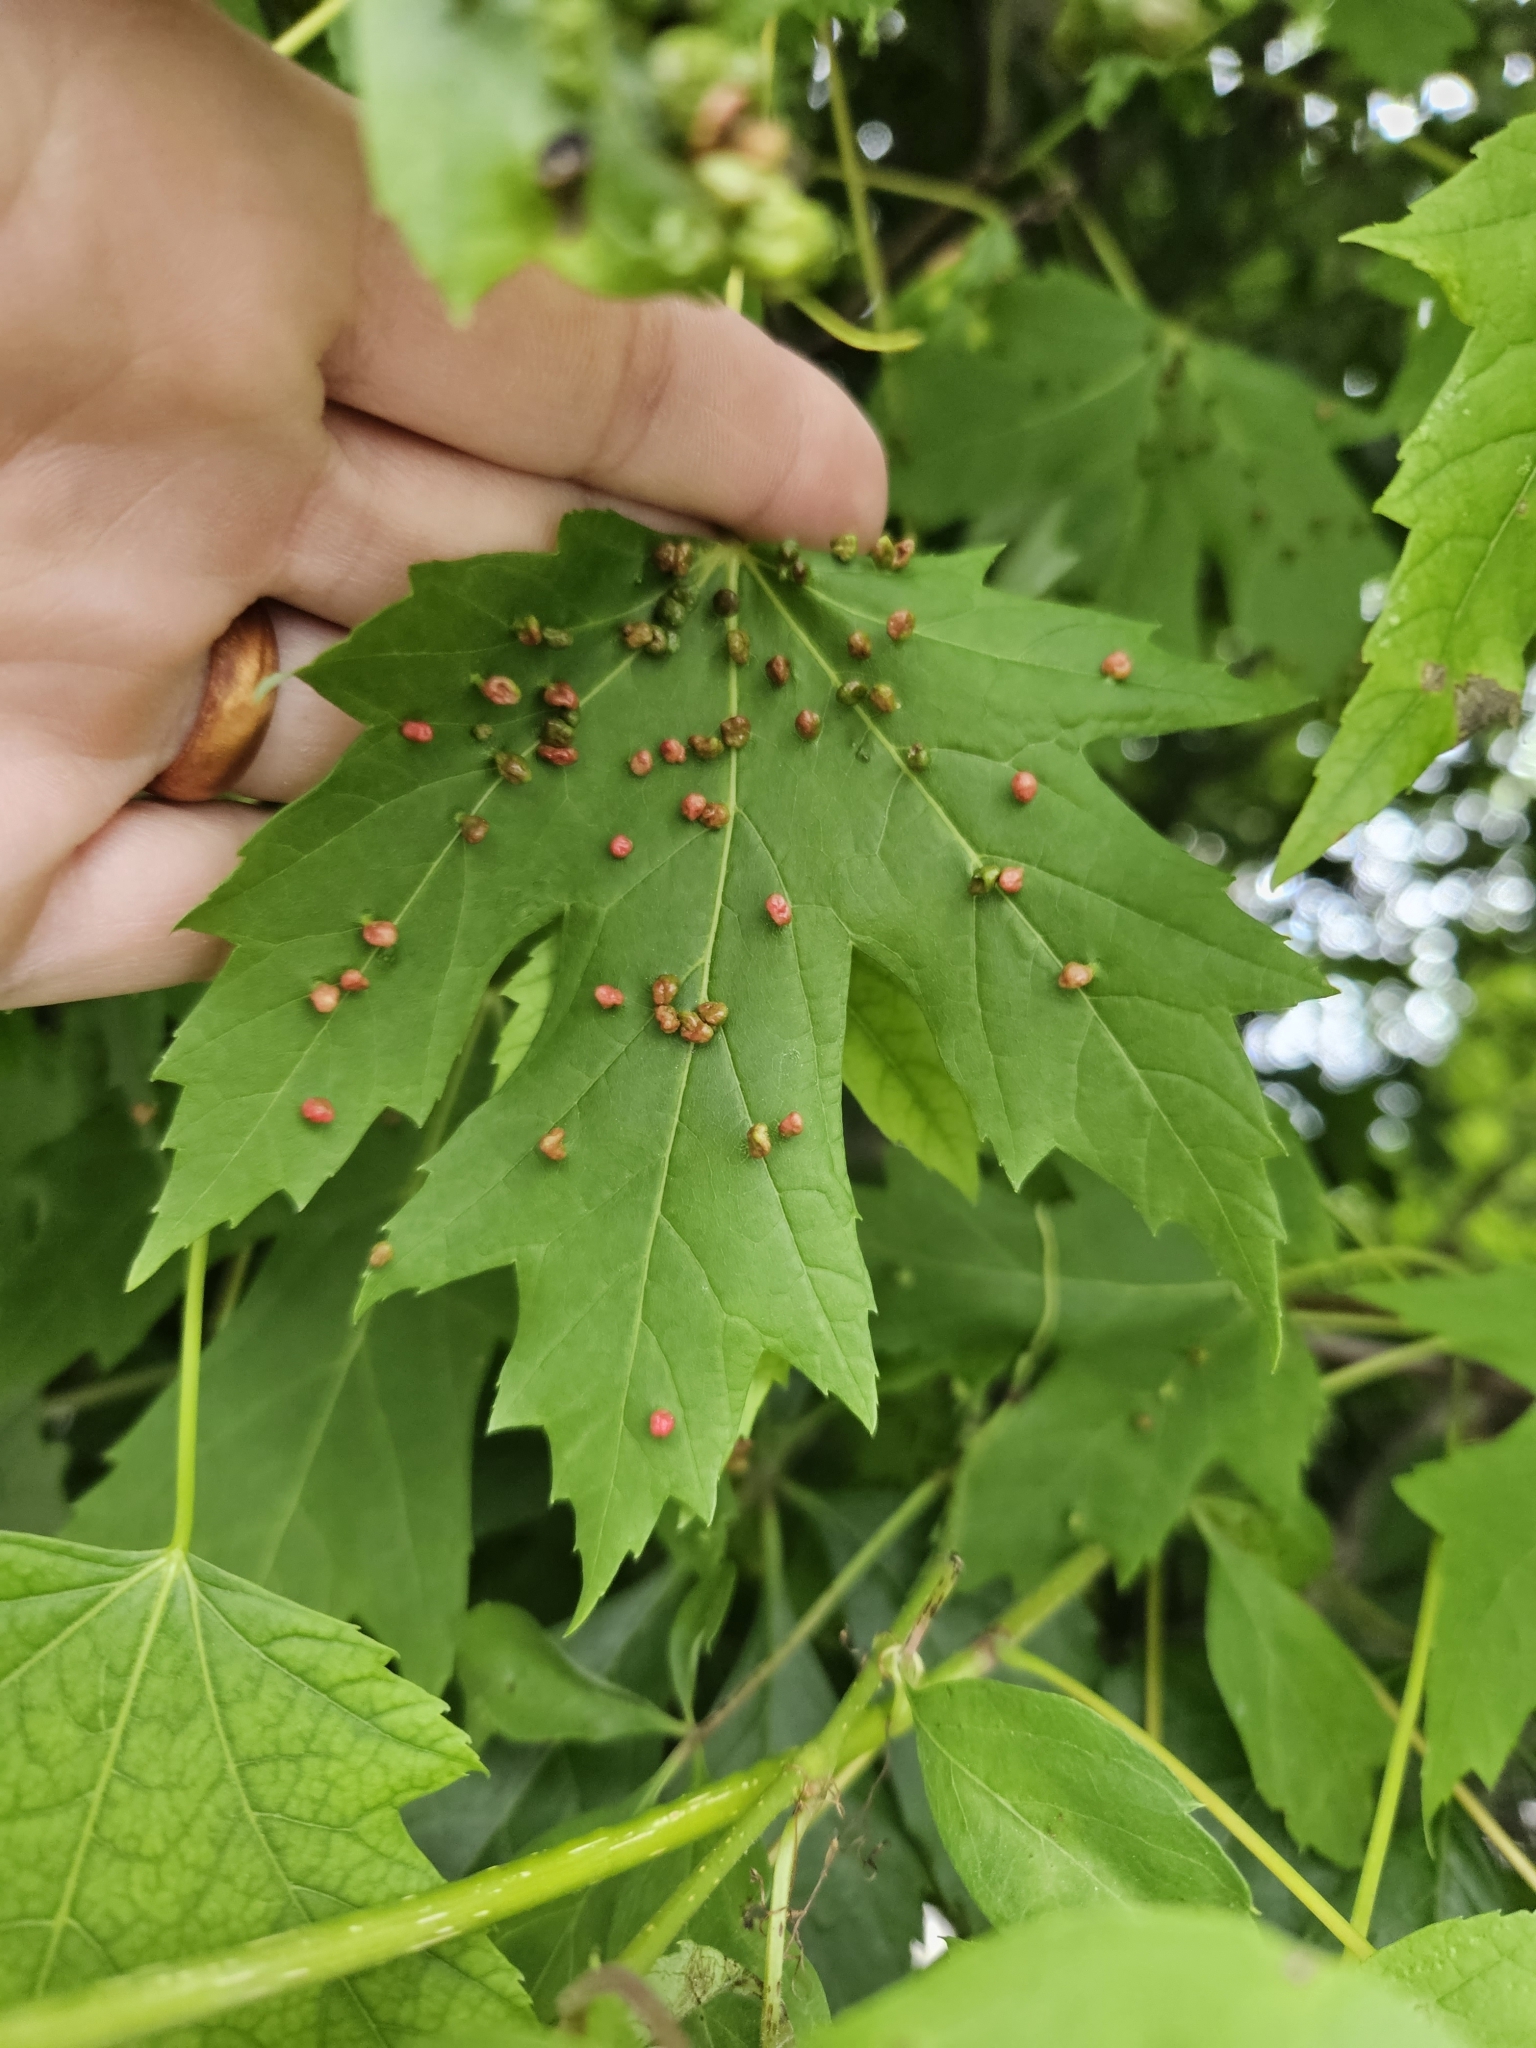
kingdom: Animalia
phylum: Arthropoda
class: Arachnida
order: Trombidiformes
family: Eriophyidae
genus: Vasates
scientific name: Vasates quadripedes
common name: Maple bladder gall mite
